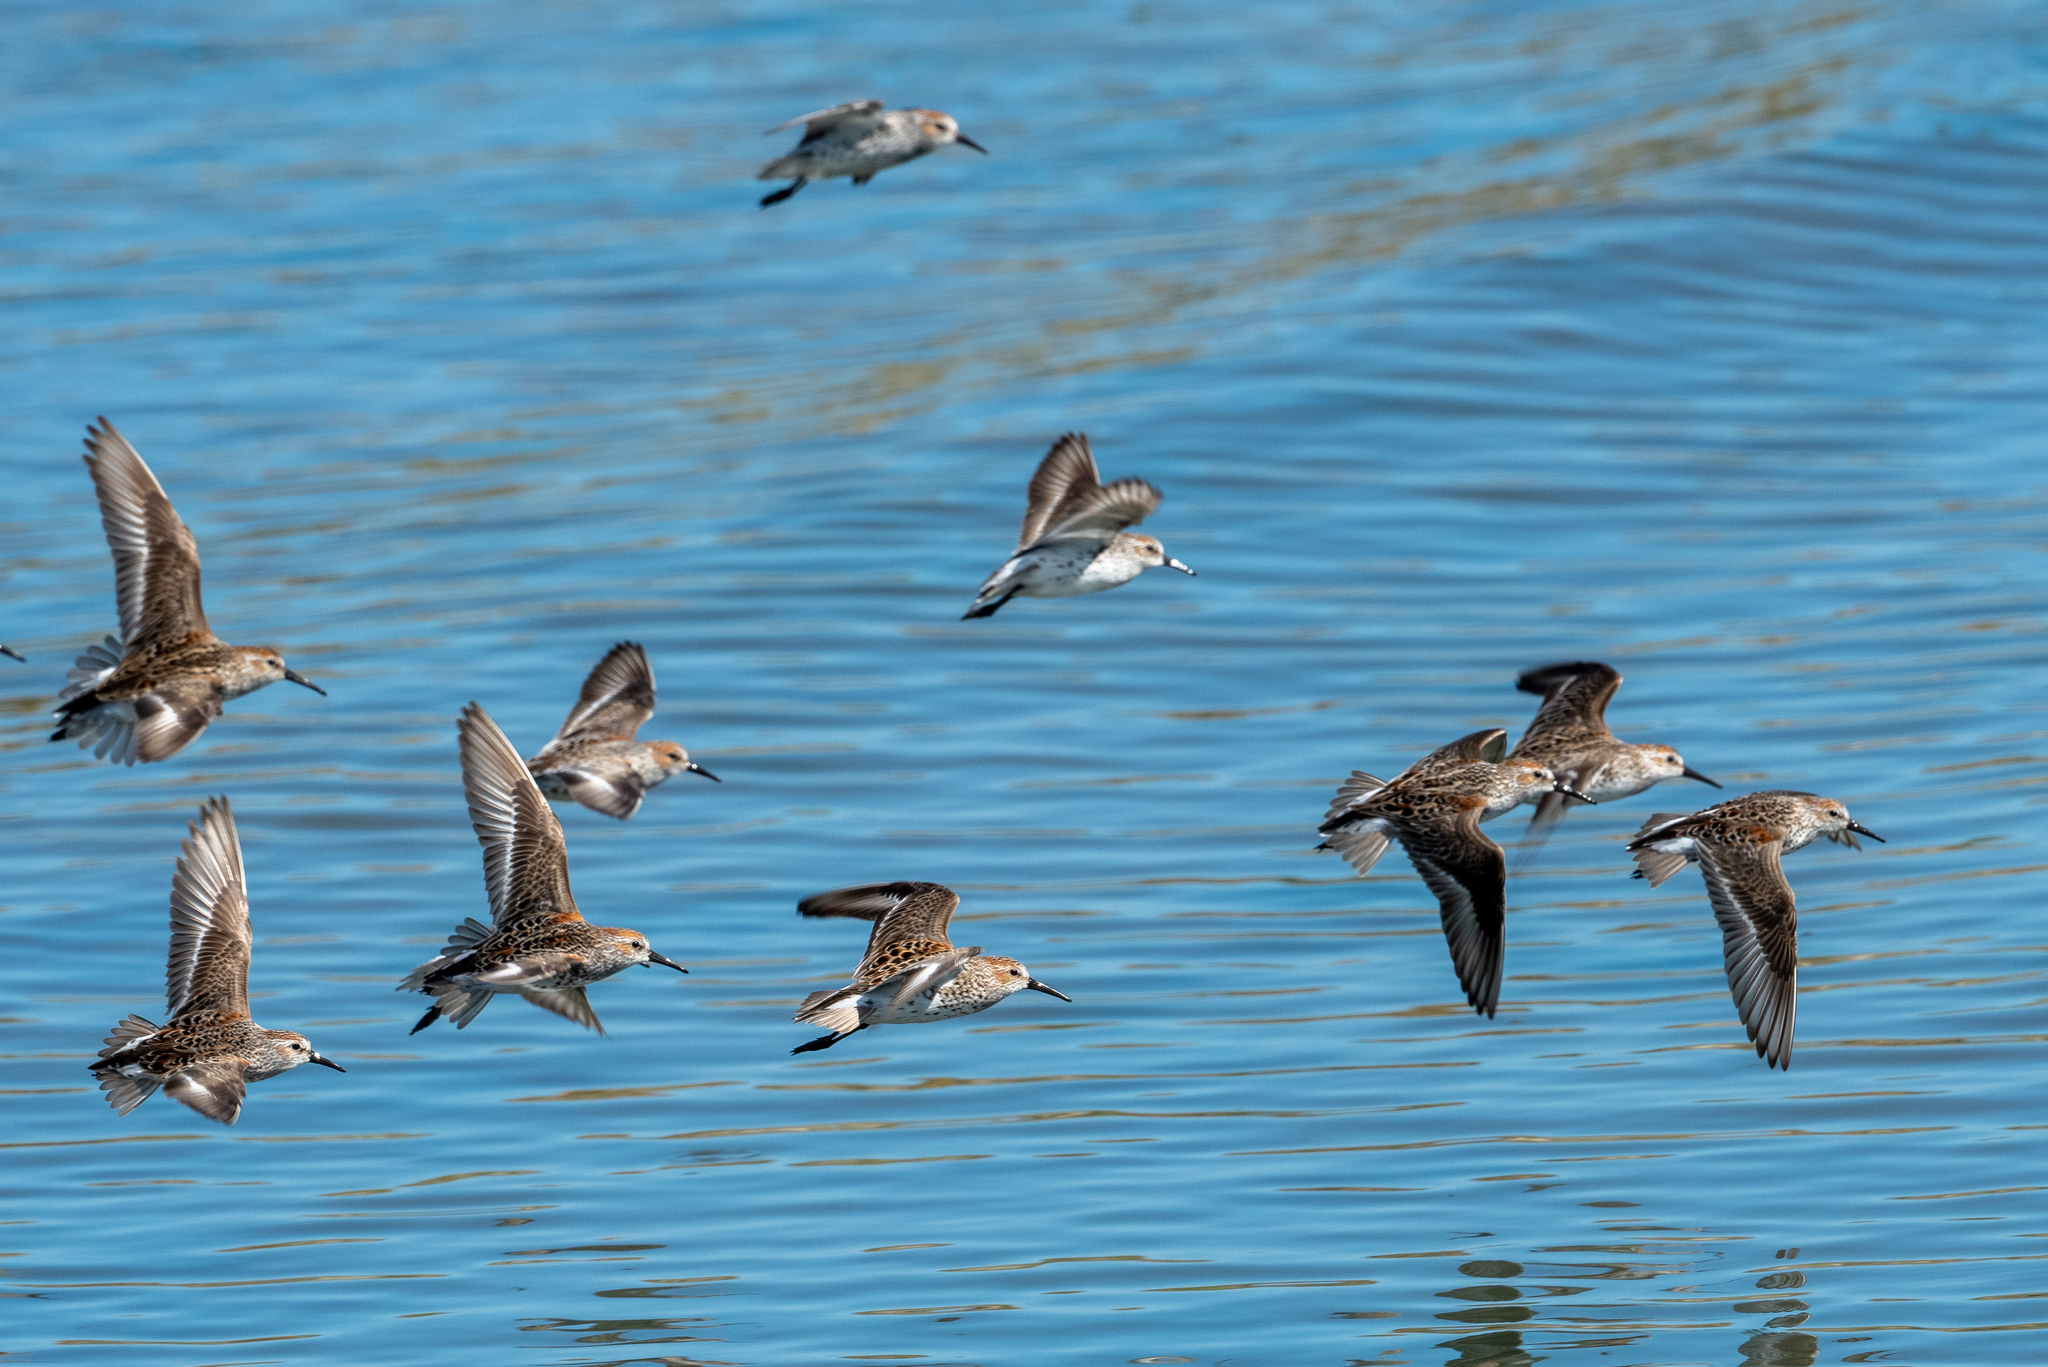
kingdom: Animalia
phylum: Chordata
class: Aves
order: Charadriiformes
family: Scolopacidae
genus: Calidris
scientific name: Calidris mauri
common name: Western sandpiper
